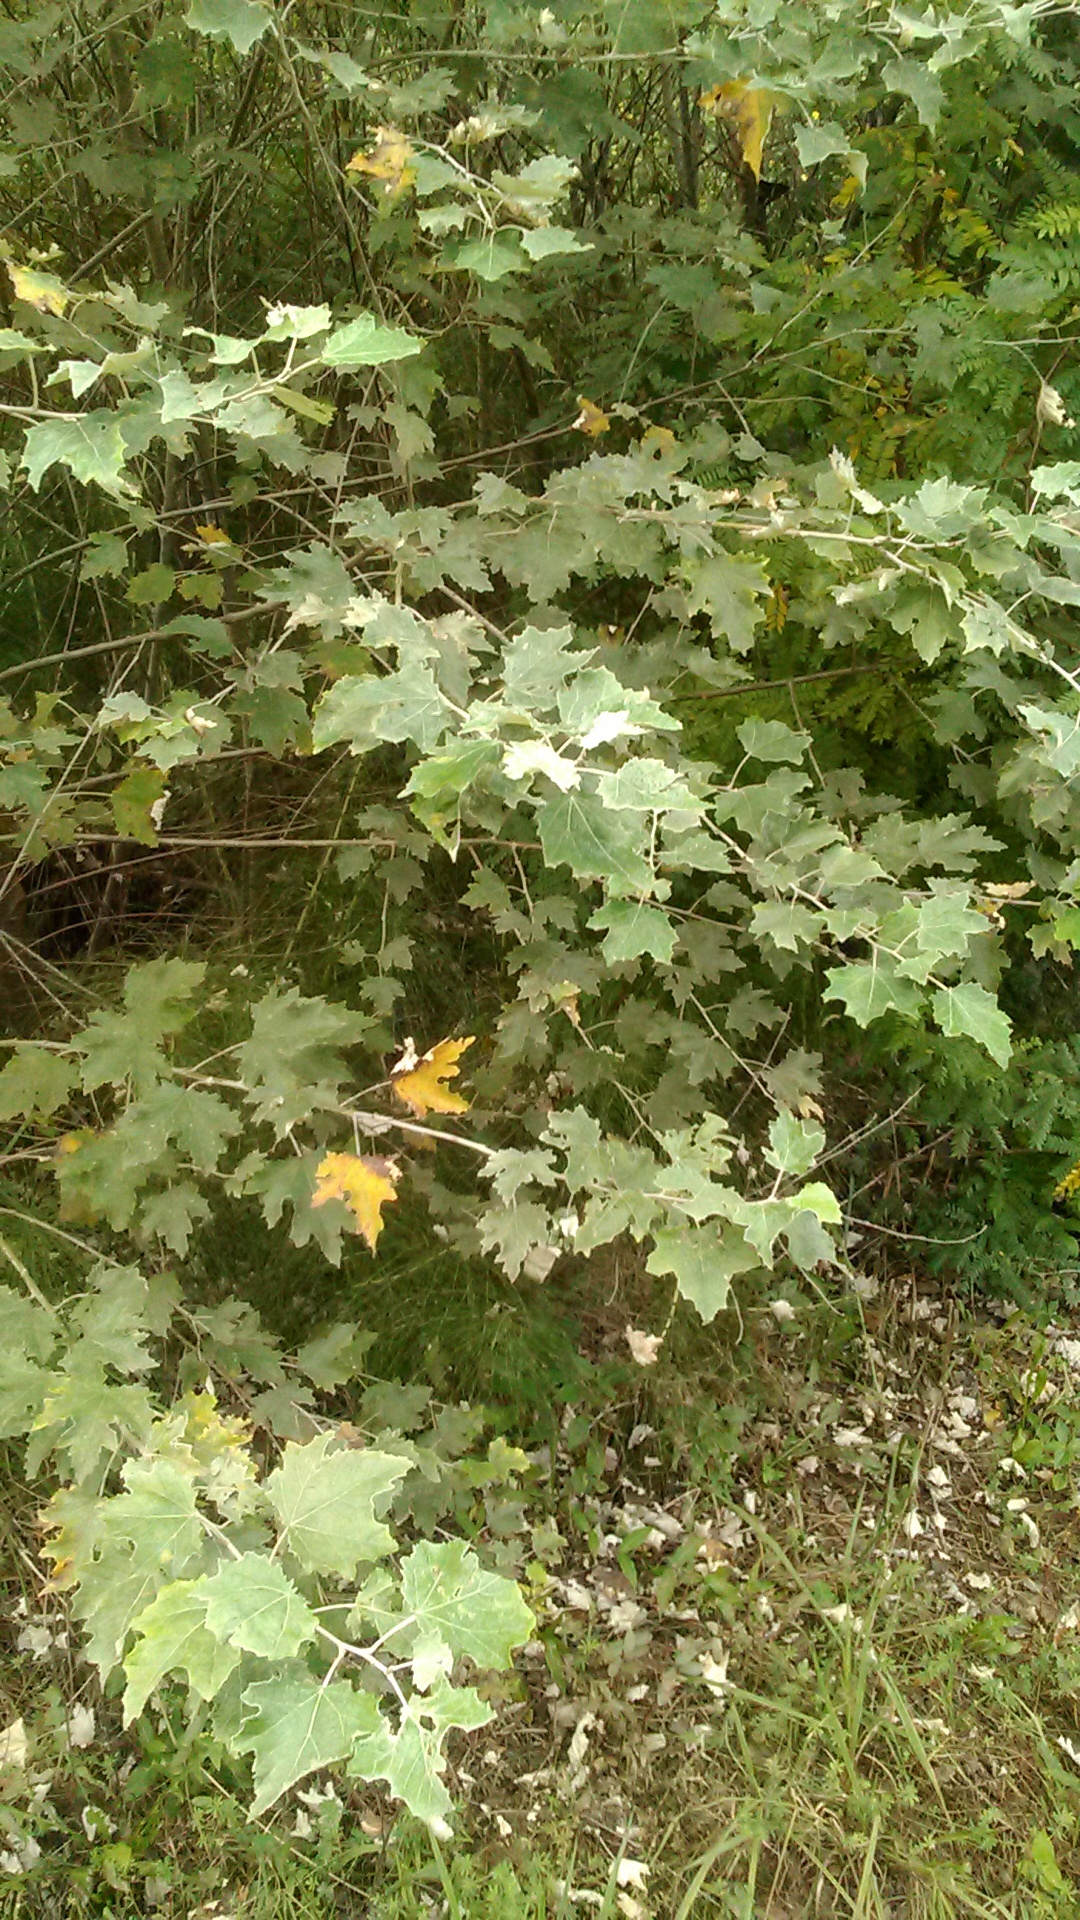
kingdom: Plantae
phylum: Tracheophyta
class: Magnoliopsida
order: Malpighiales
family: Salicaceae
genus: Populus
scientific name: Populus alba
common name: White poplar
